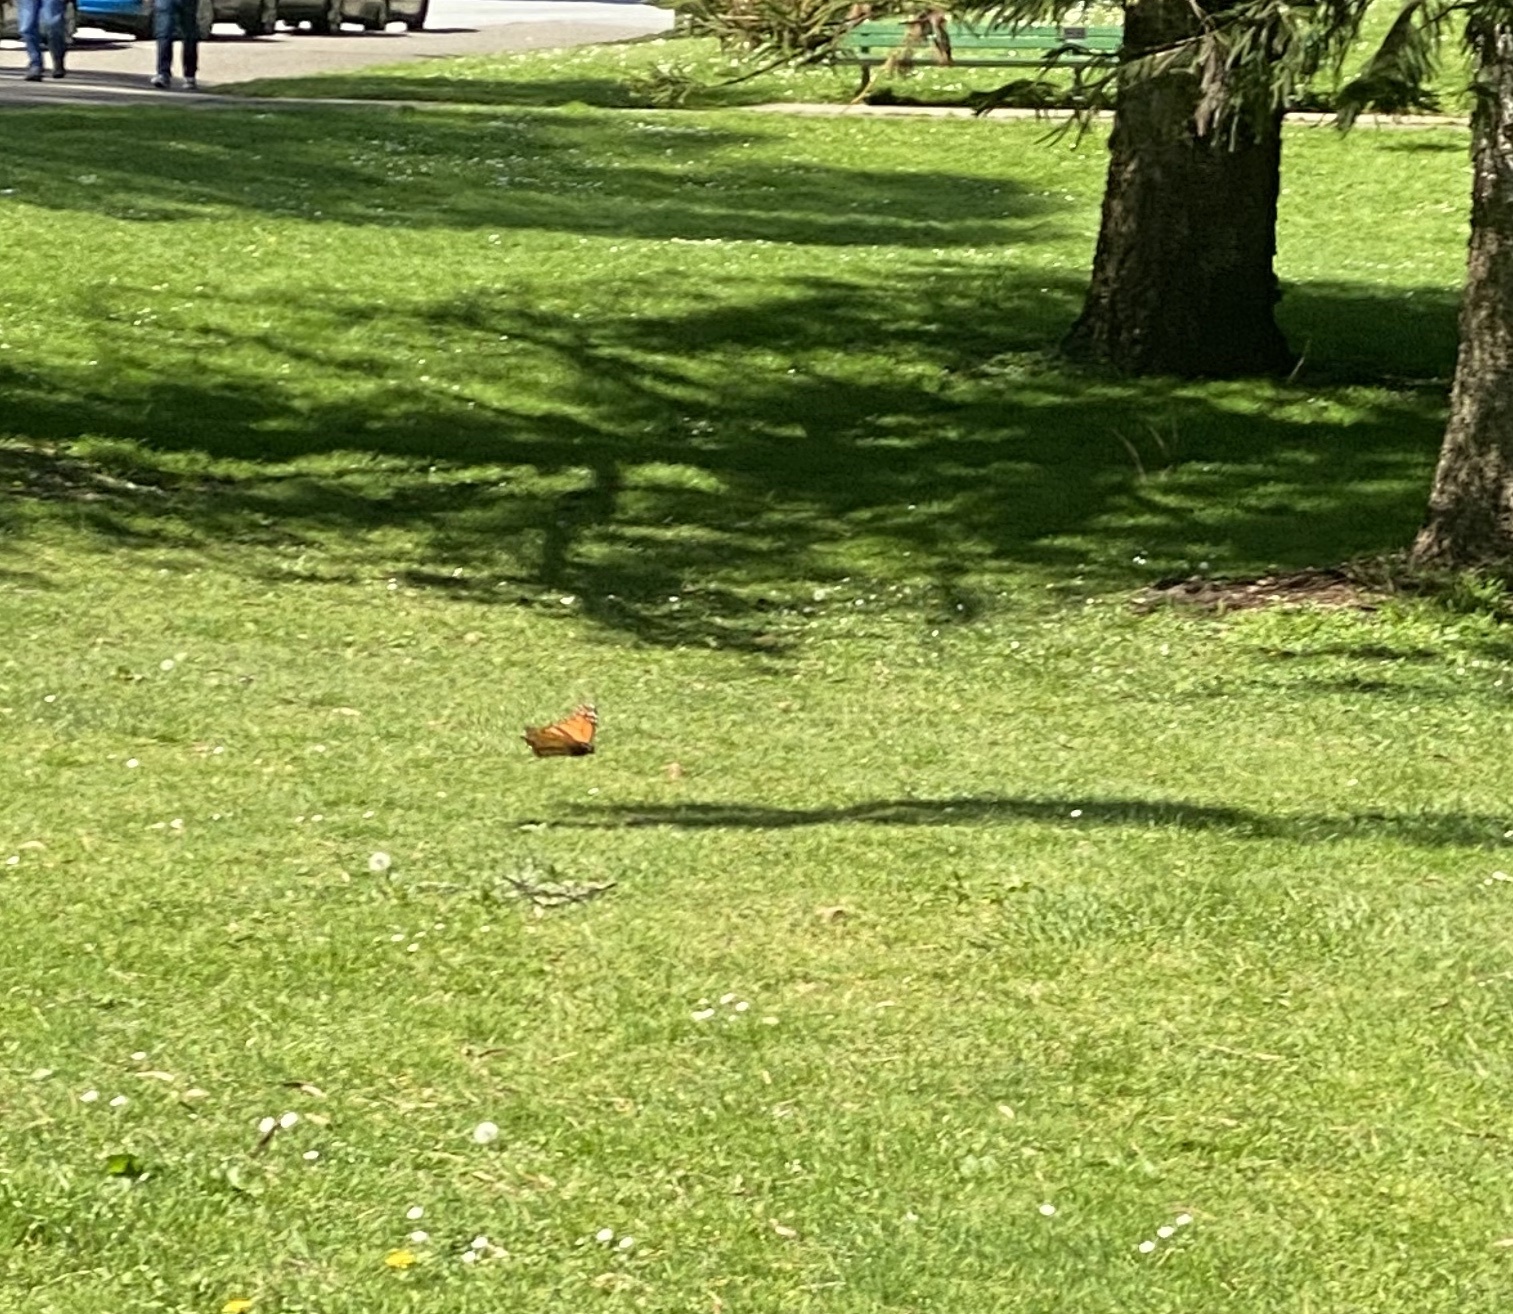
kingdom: Animalia
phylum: Arthropoda
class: Insecta
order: Lepidoptera
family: Nymphalidae
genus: Danaus
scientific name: Danaus plexippus
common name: Monarch
